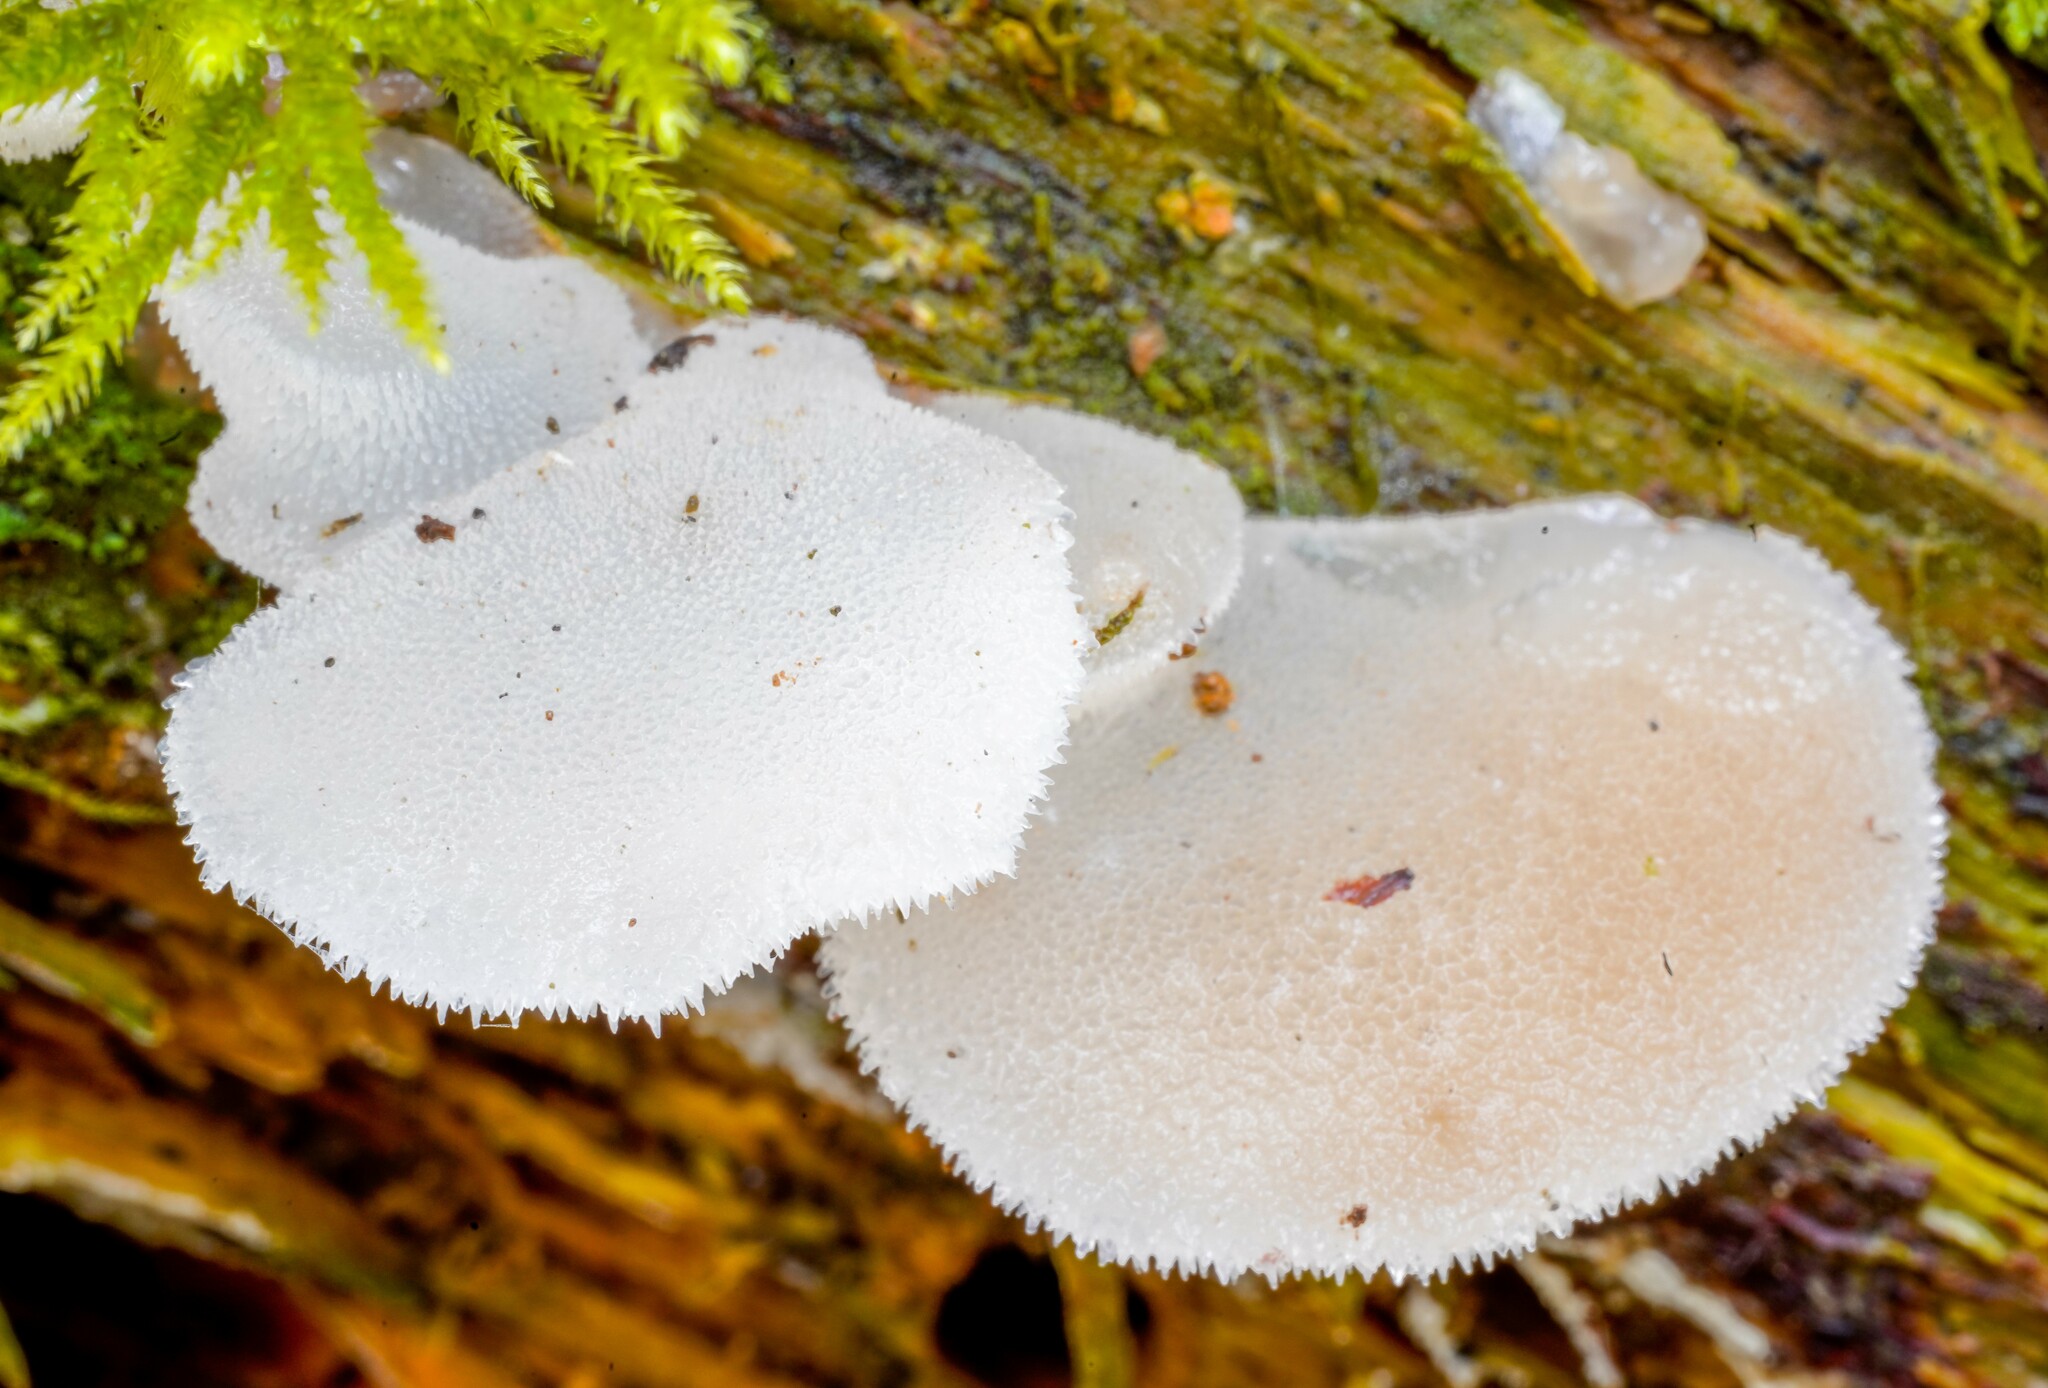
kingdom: Fungi
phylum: Basidiomycota
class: Agaricomycetes
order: Auriculariales
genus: Pseudohydnum
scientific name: Pseudohydnum gelatinosum
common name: Jelly tongue
